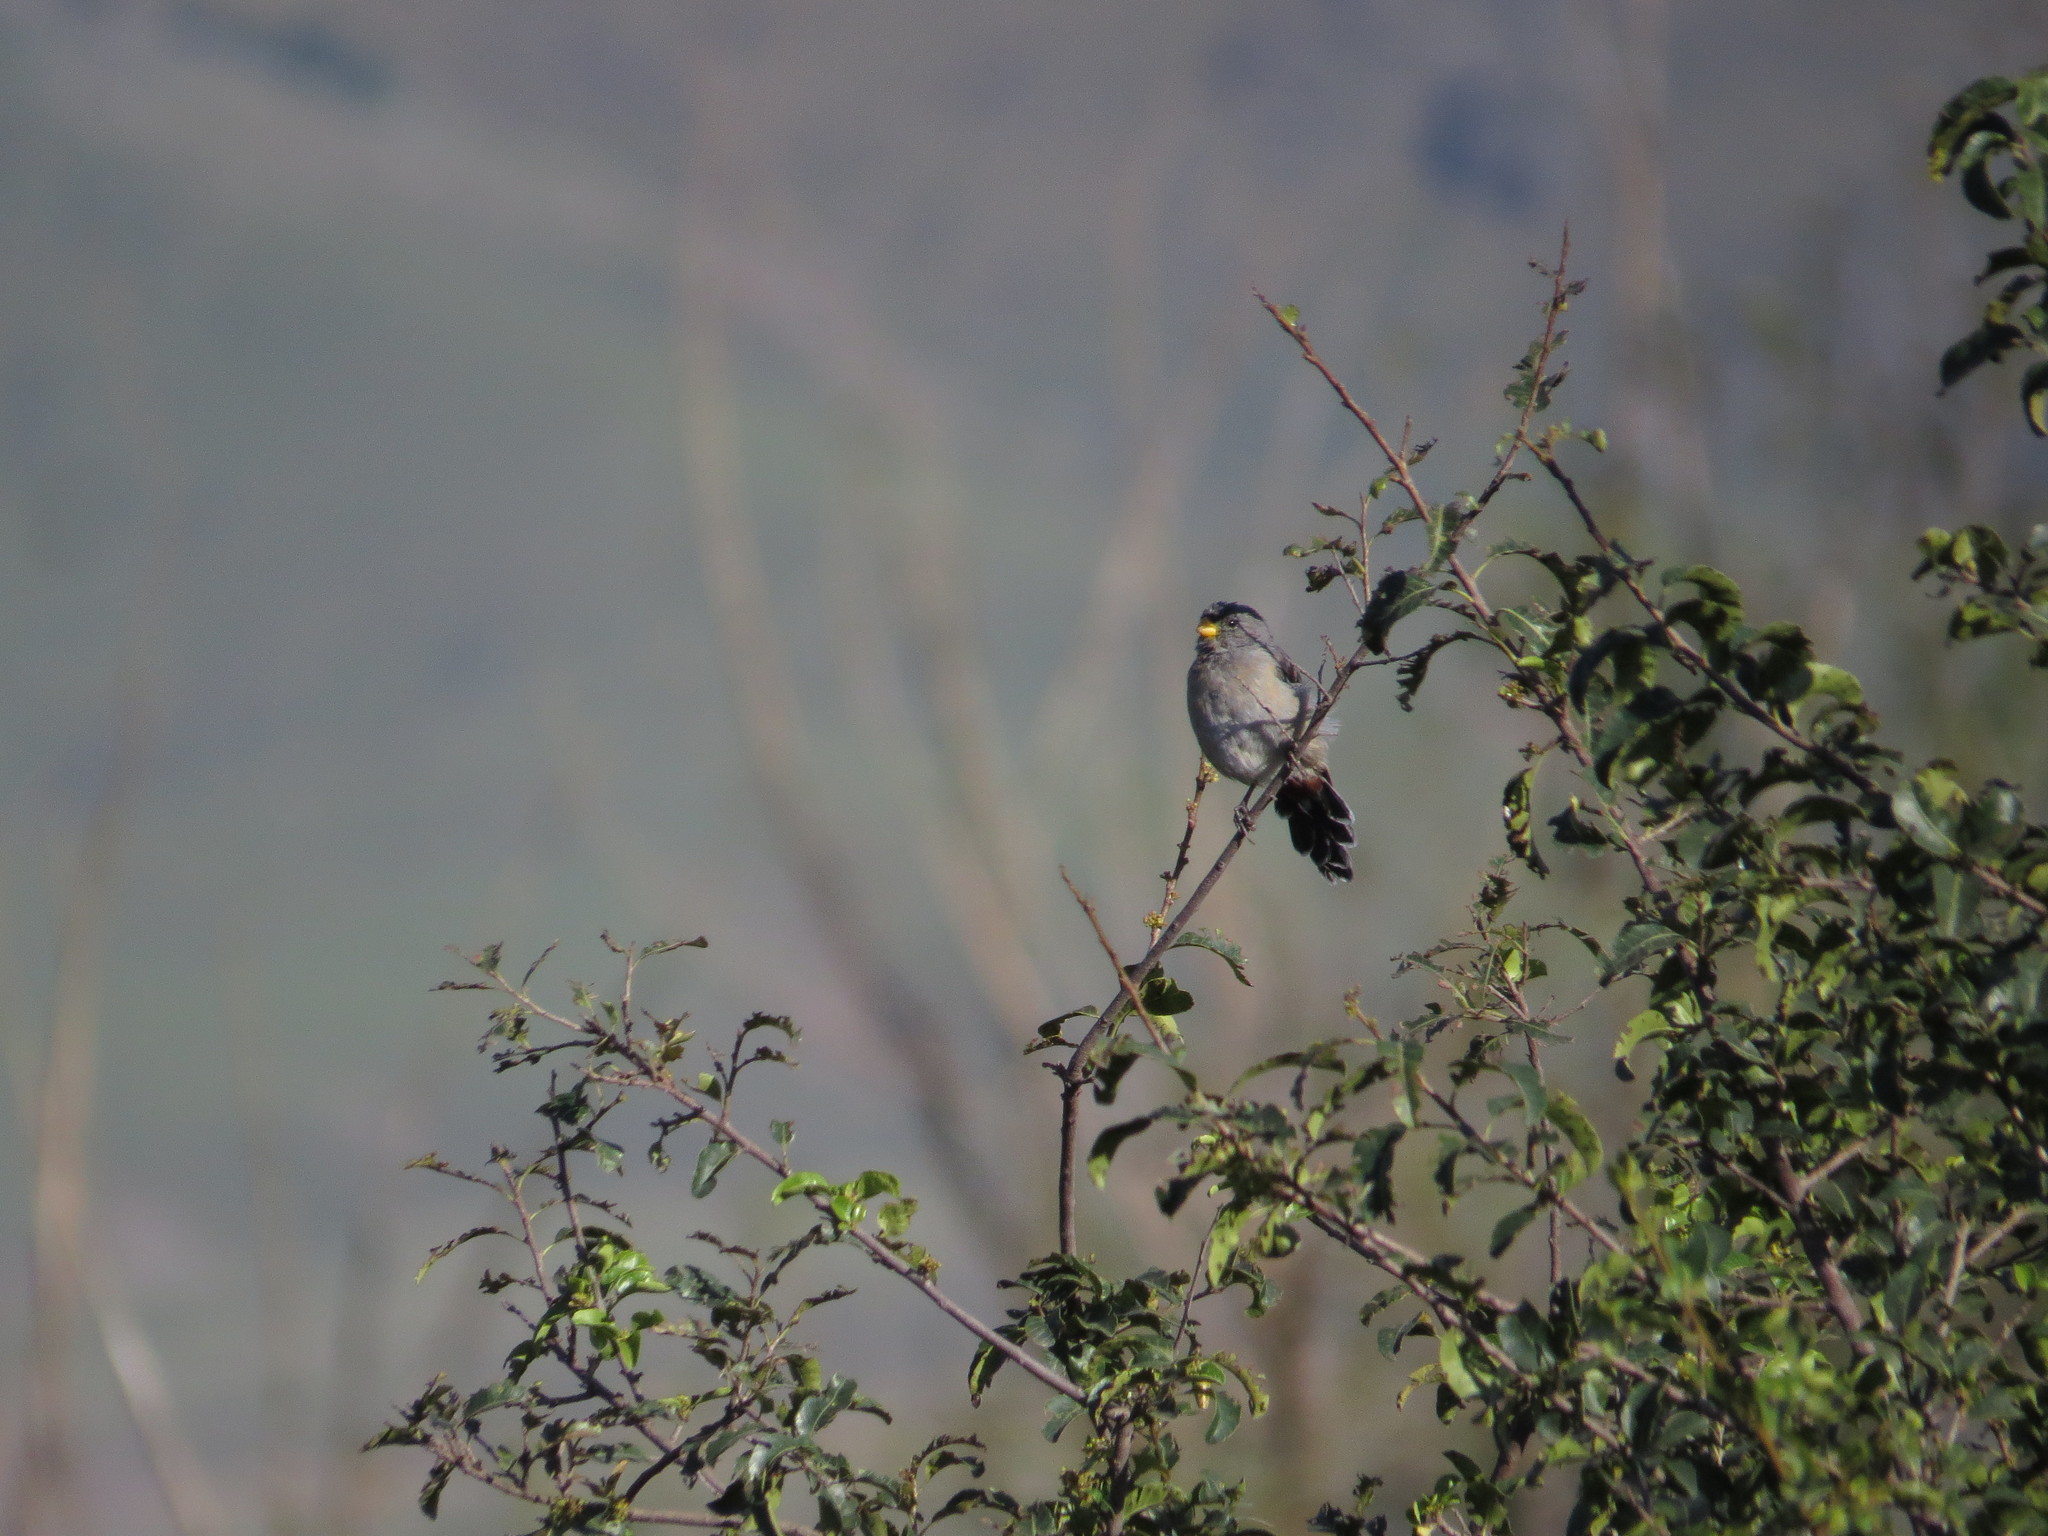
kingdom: Animalia
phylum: Chordata
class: Aves
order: Passeriformes
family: Thraupidae
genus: Catamenia
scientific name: Catamenia analis
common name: Band-tailed seedeater
